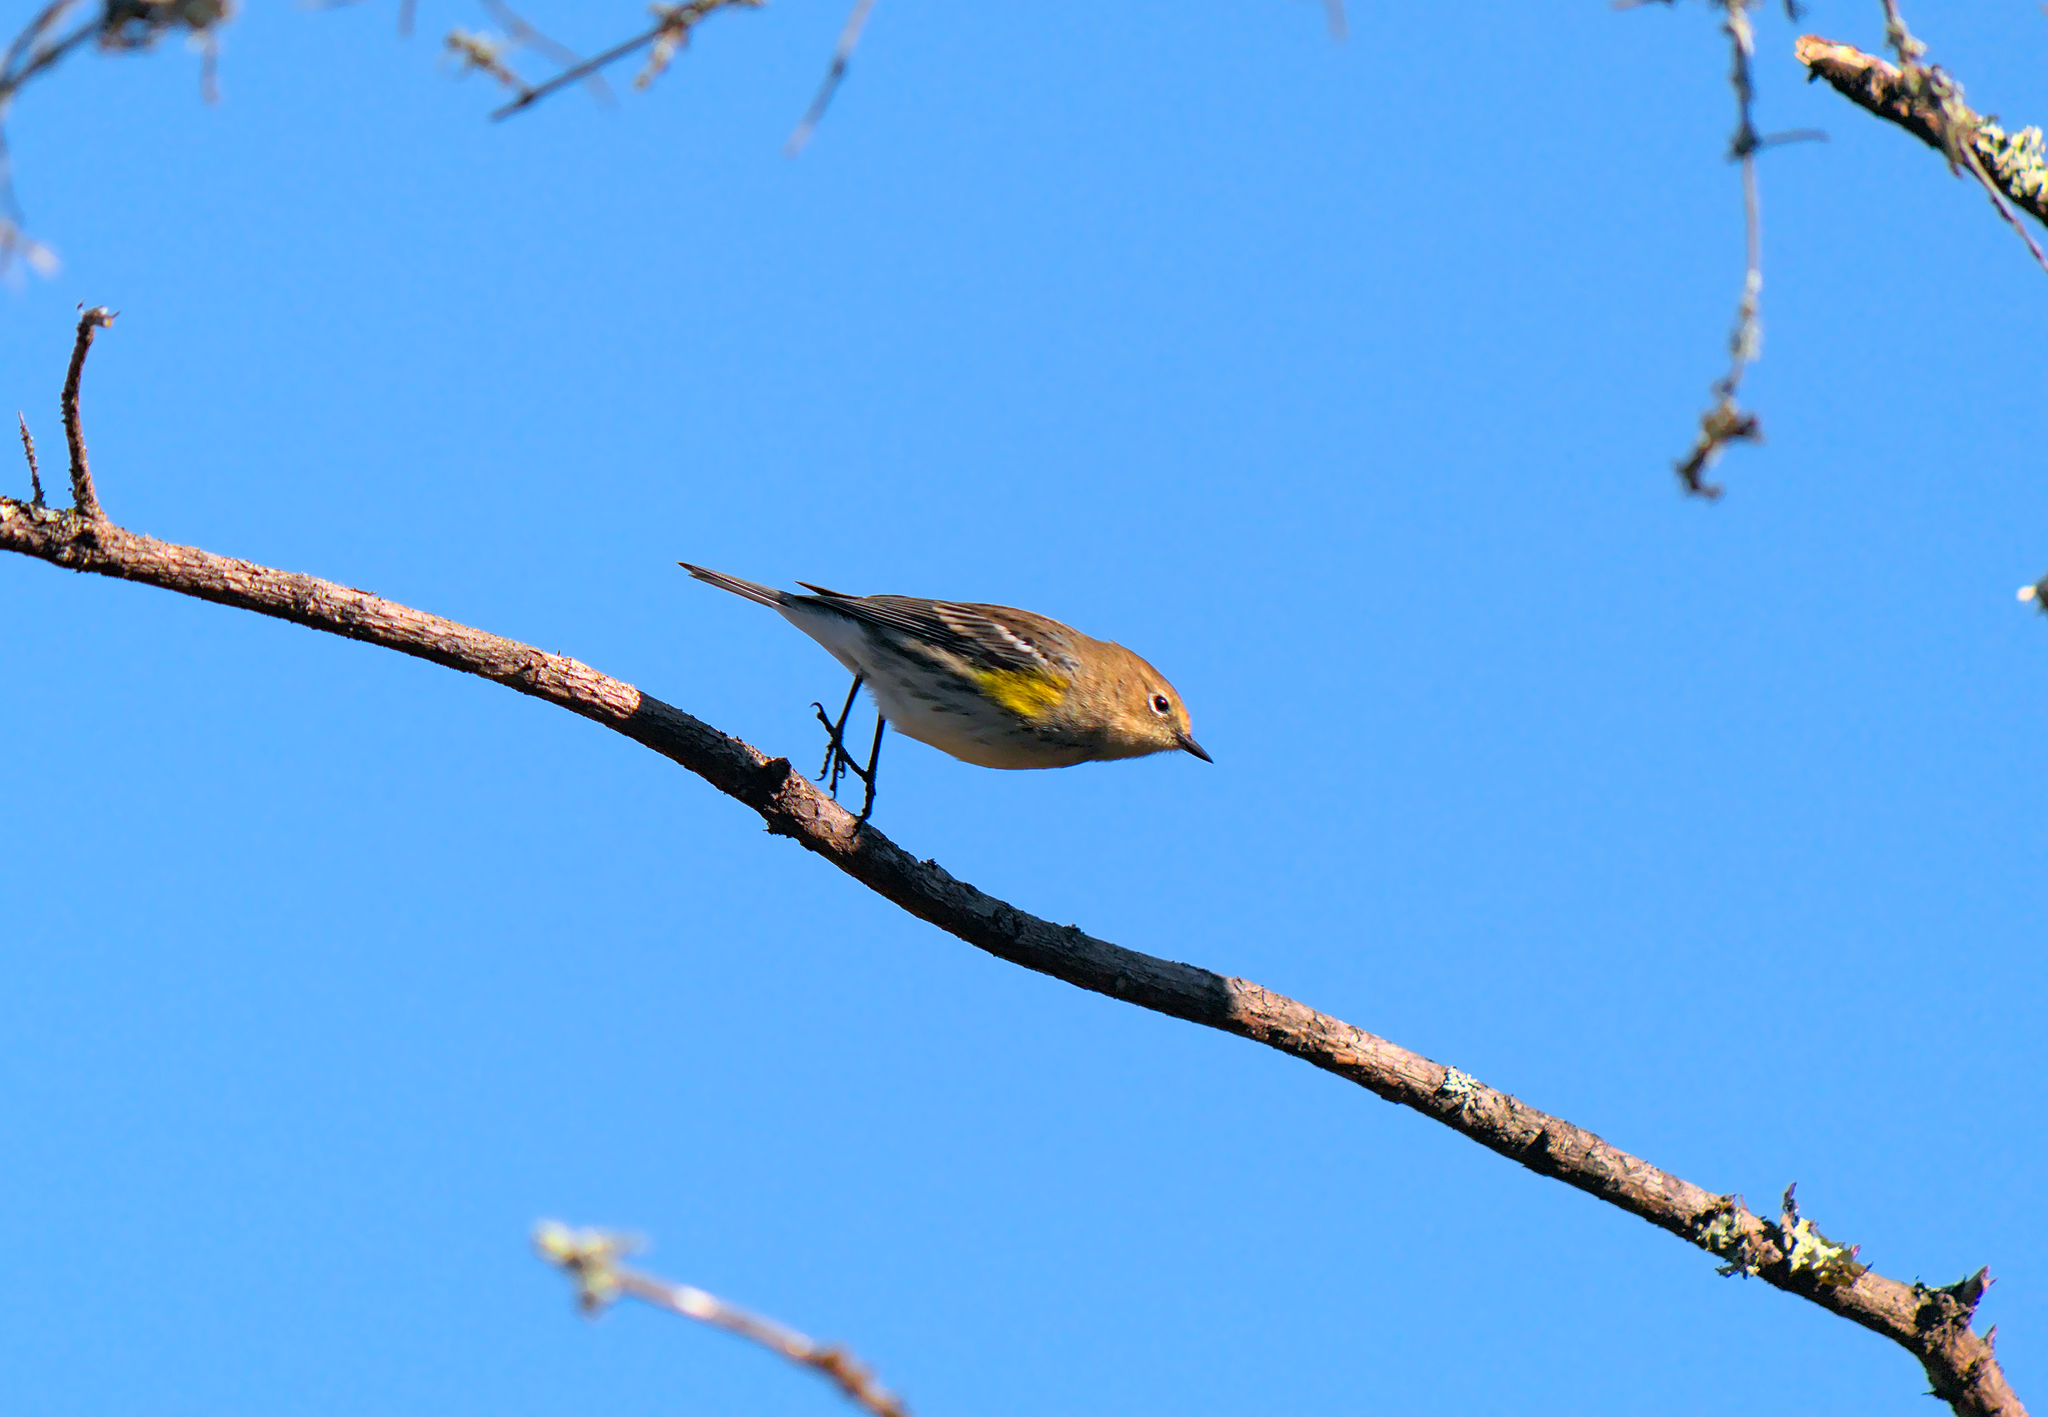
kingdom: Animalia
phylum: Chordata
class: Aves
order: Passeriformes
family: Parulidae
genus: Setophaga
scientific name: Setophaga coronata
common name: Myrtle warbler
